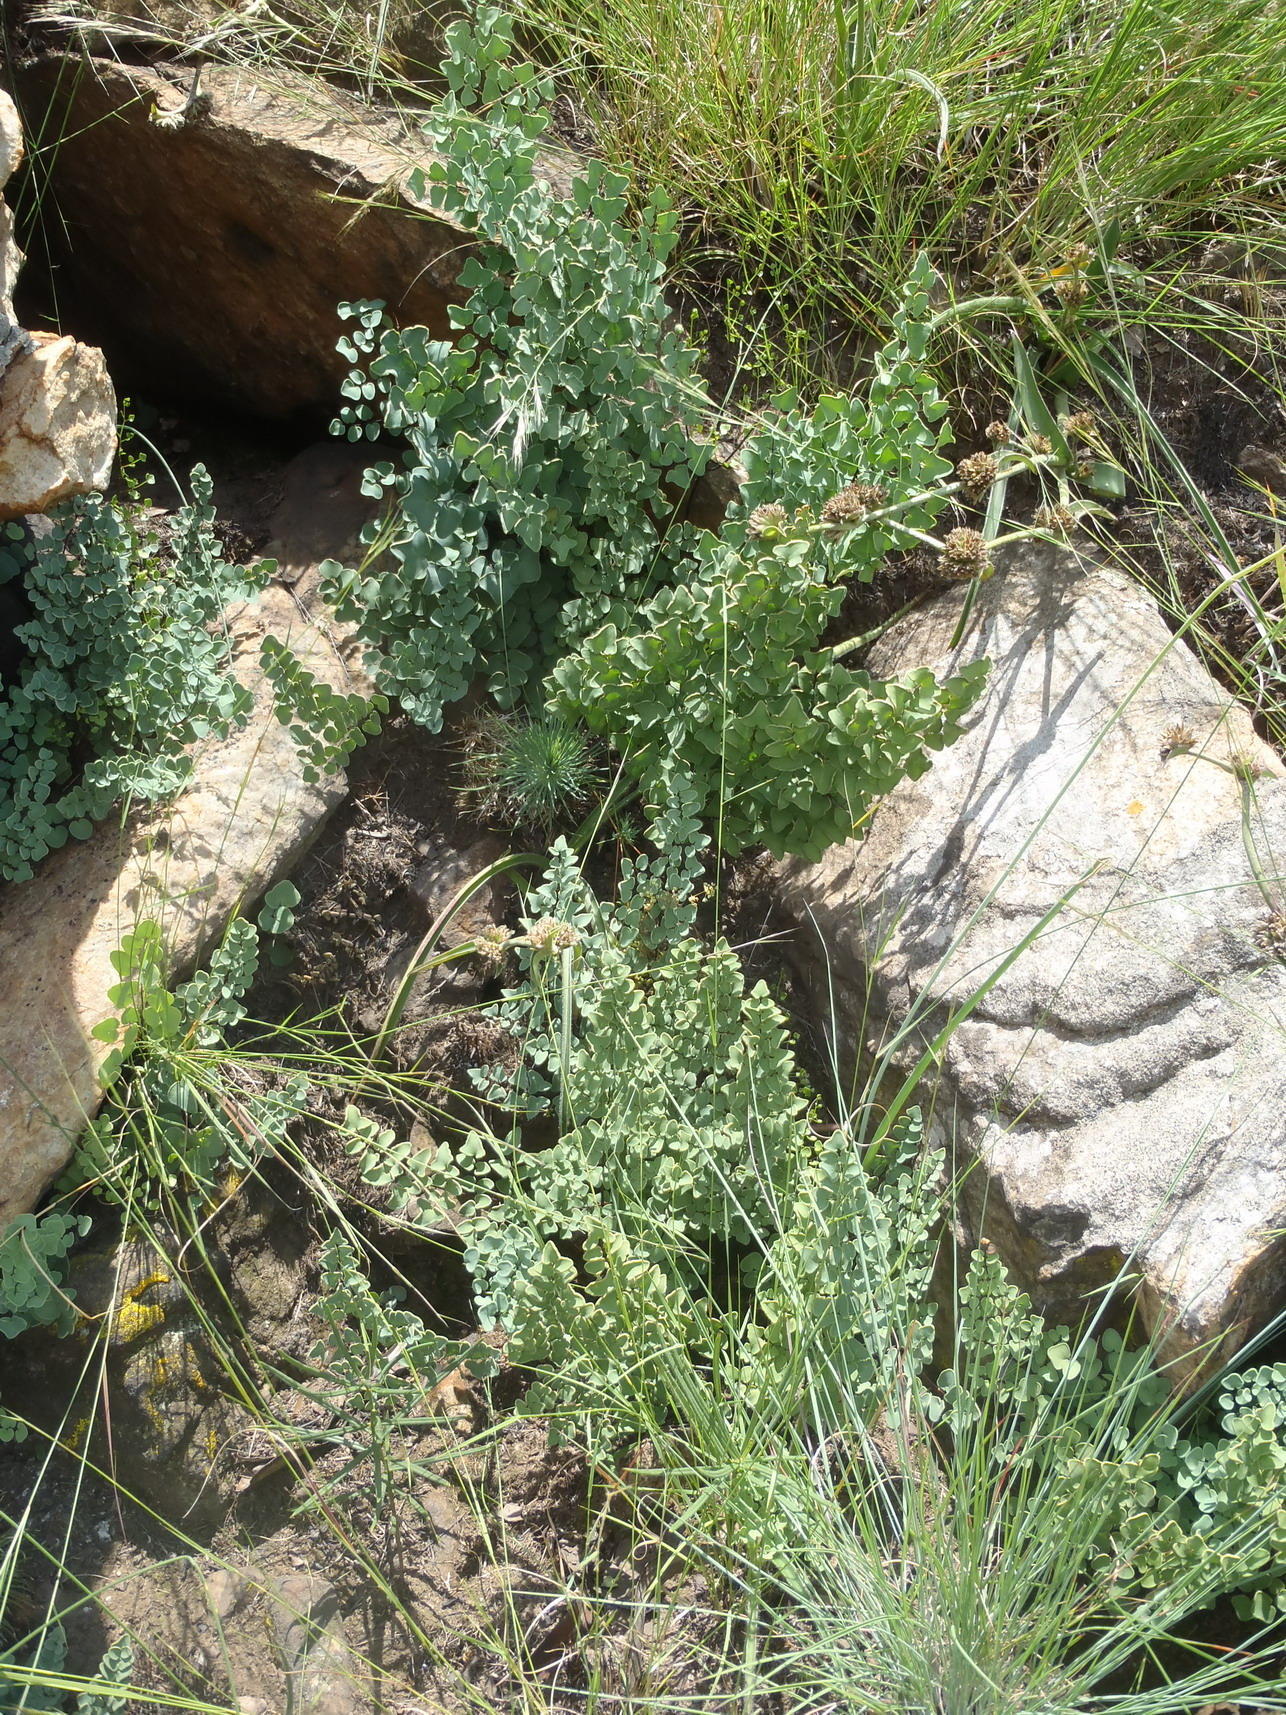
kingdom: Plantae
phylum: Tracheophyta
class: Polypodiopsida
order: Polypodiales
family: Pteridaceae
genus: Pellaea
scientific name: Pellaea calomelanos
